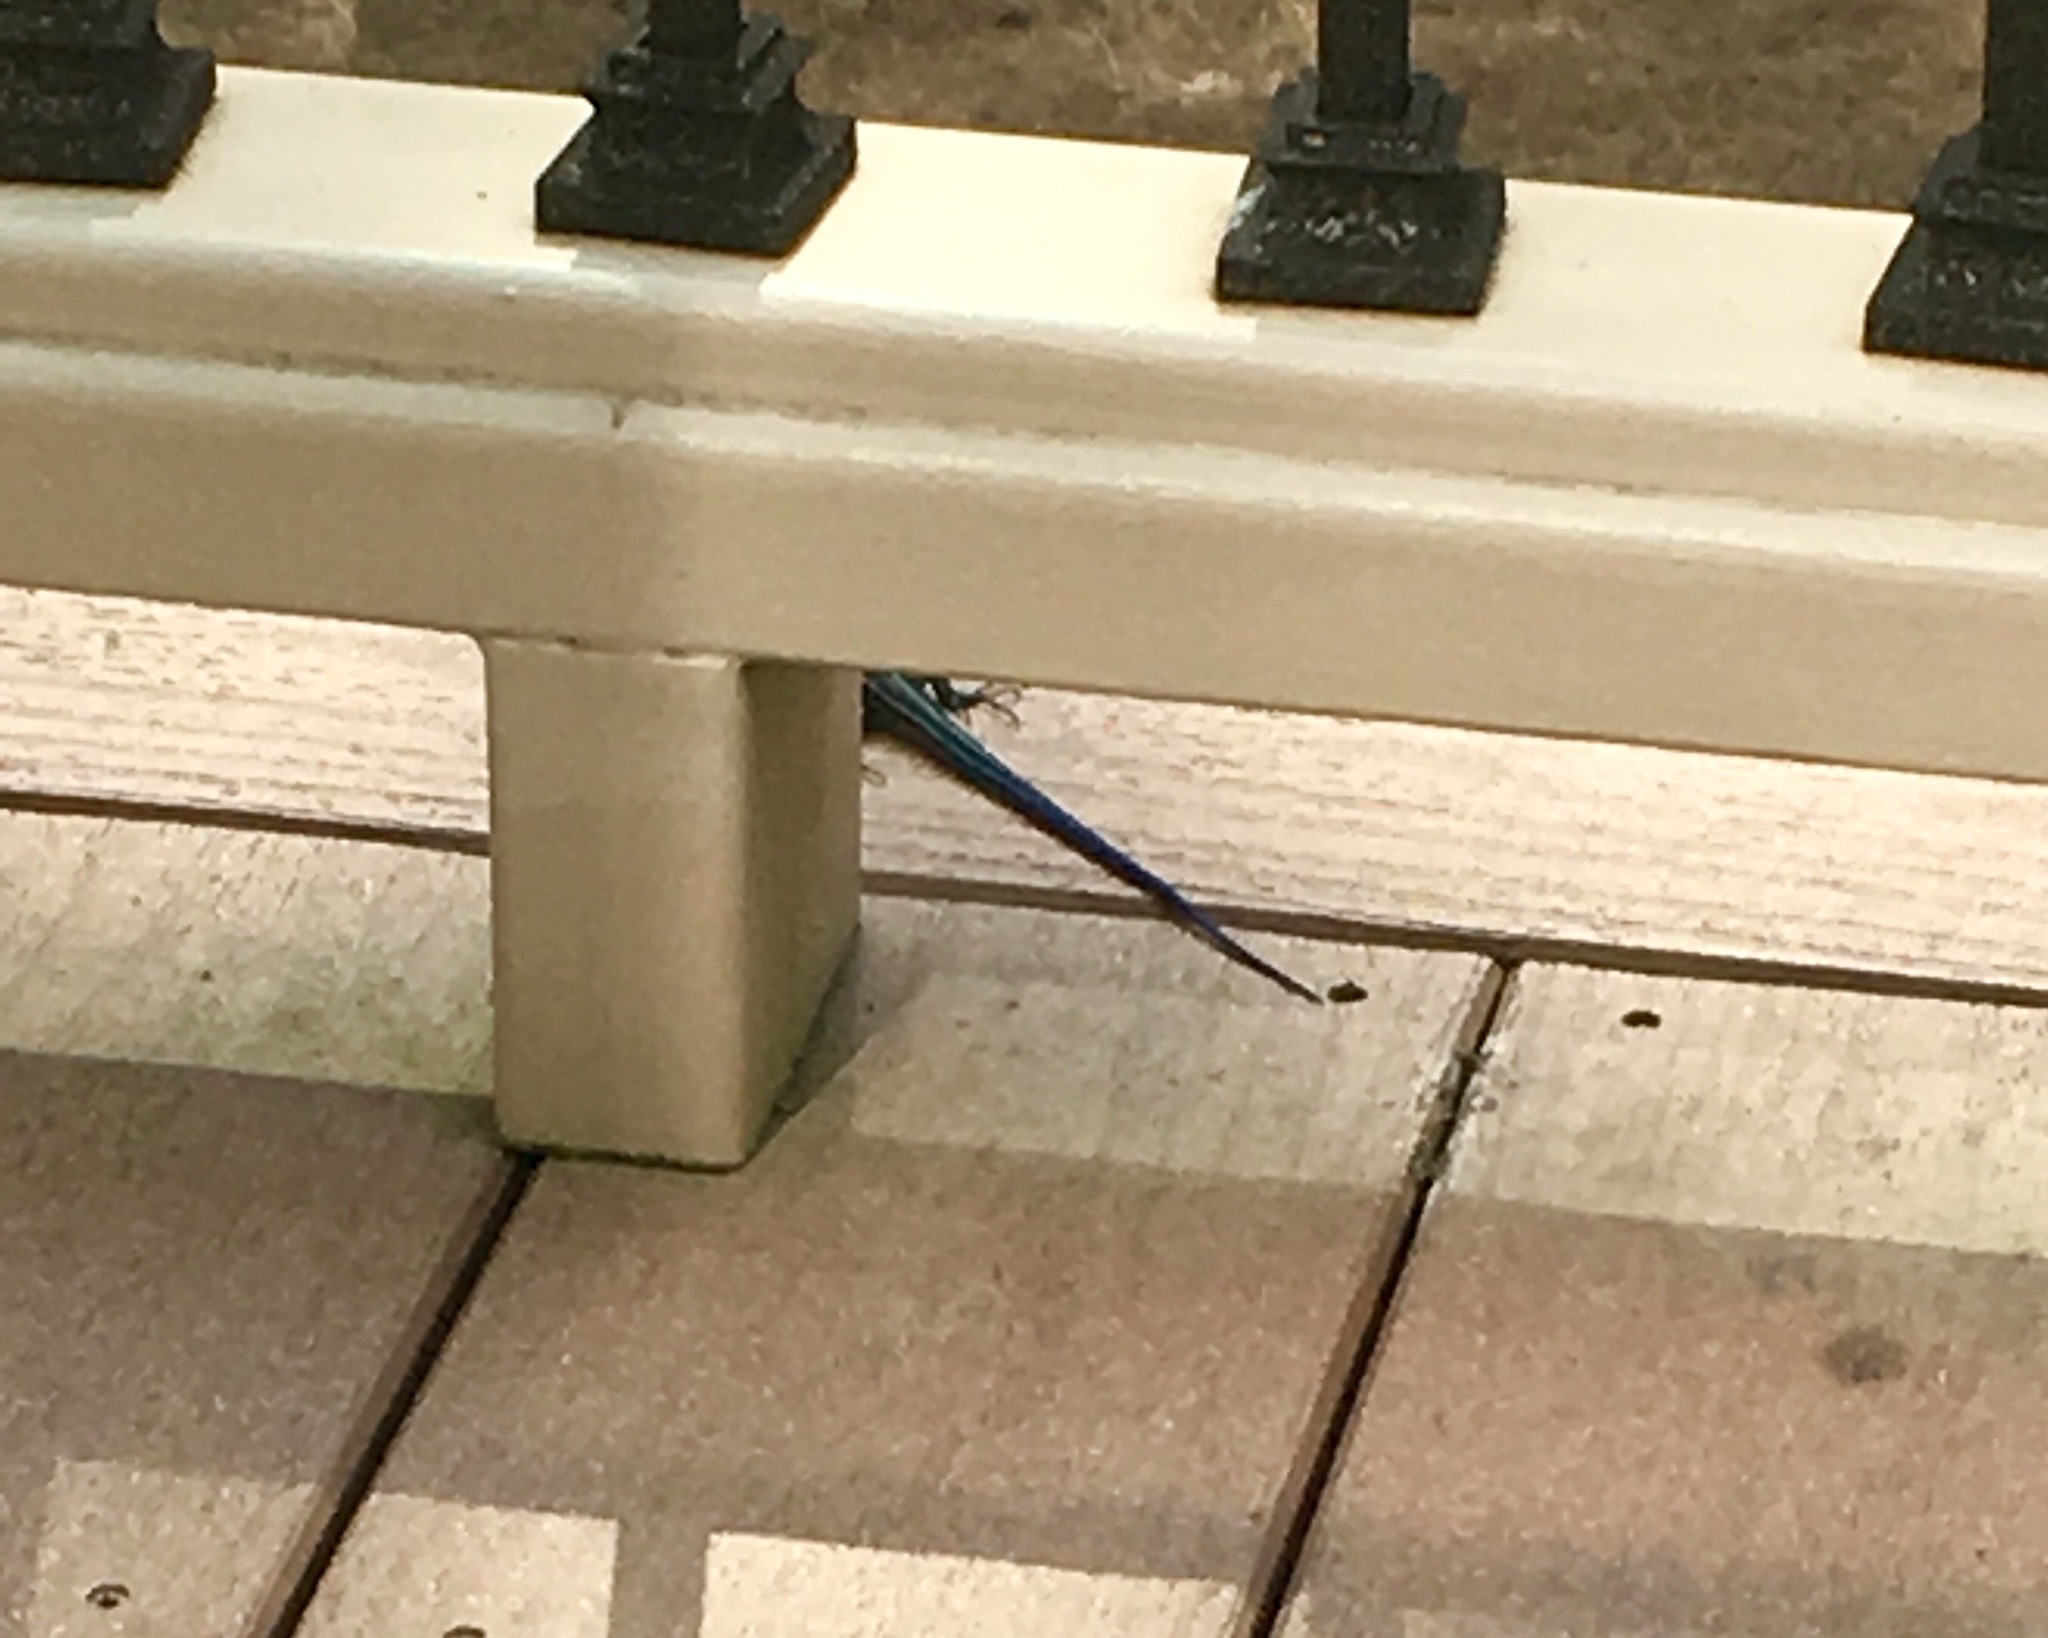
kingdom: Animalia
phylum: Chordata
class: Squamata
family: Scincidae
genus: Plestiodon
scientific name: Plestiodon fasciatus
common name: Five-lined skink
